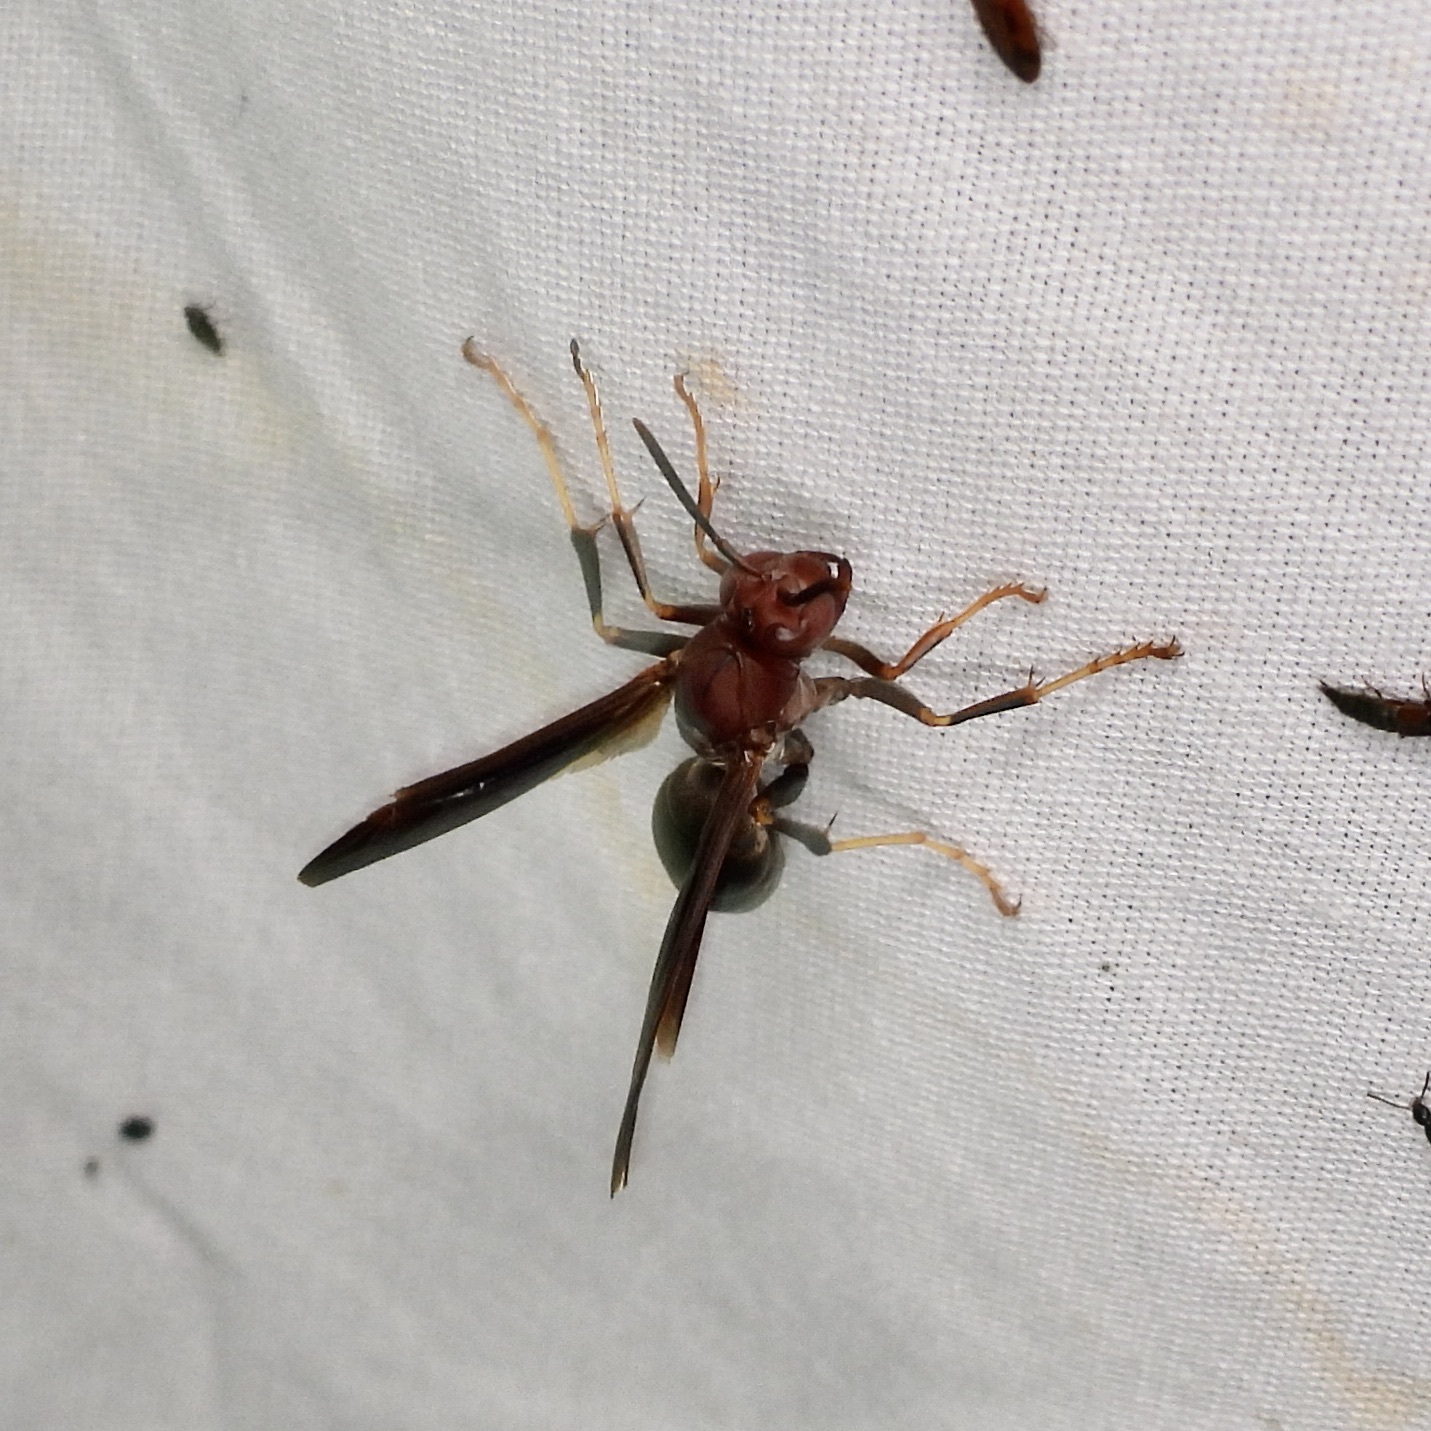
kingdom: Animalia
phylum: Arthropoda
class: Insecta
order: Hymenoptera
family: Eumenidae
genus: Polistes
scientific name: Polistes metricus
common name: Metric paper wasp
